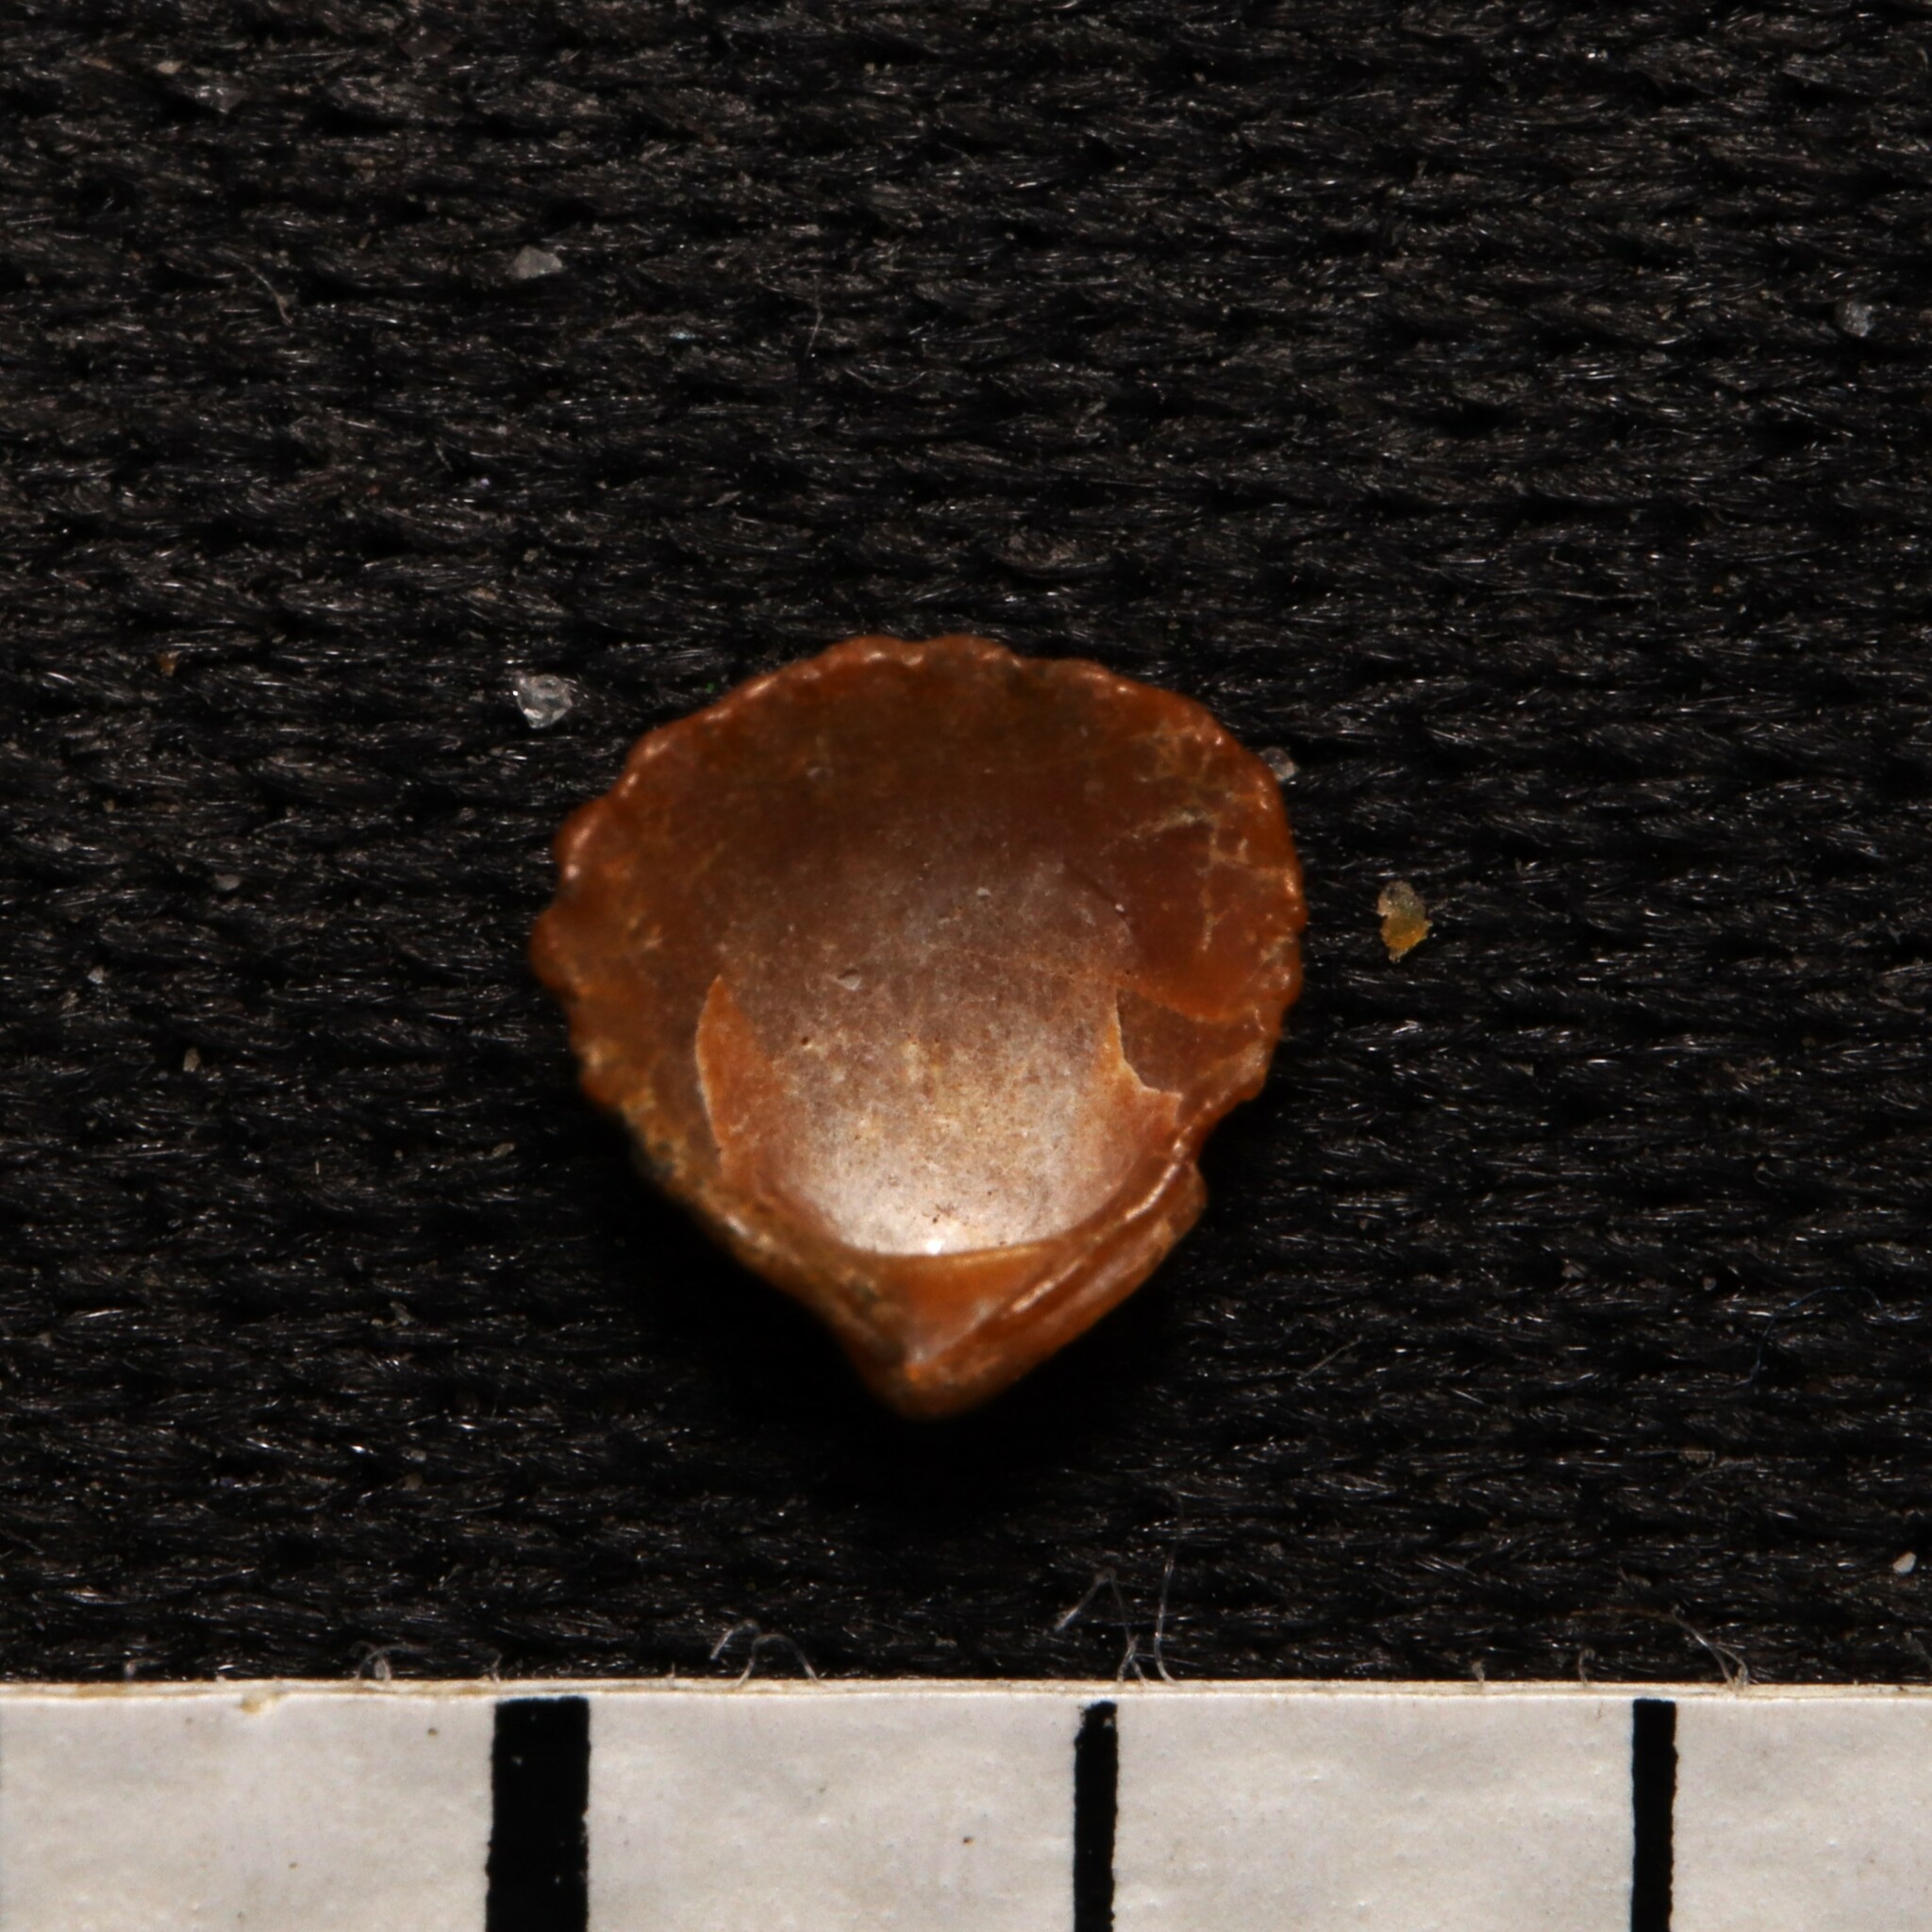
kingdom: Animalia
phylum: Mollusca
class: Bivalvia
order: Carditida
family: Carditidae
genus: Pleuromeris
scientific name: Pleuromeris tridentata
